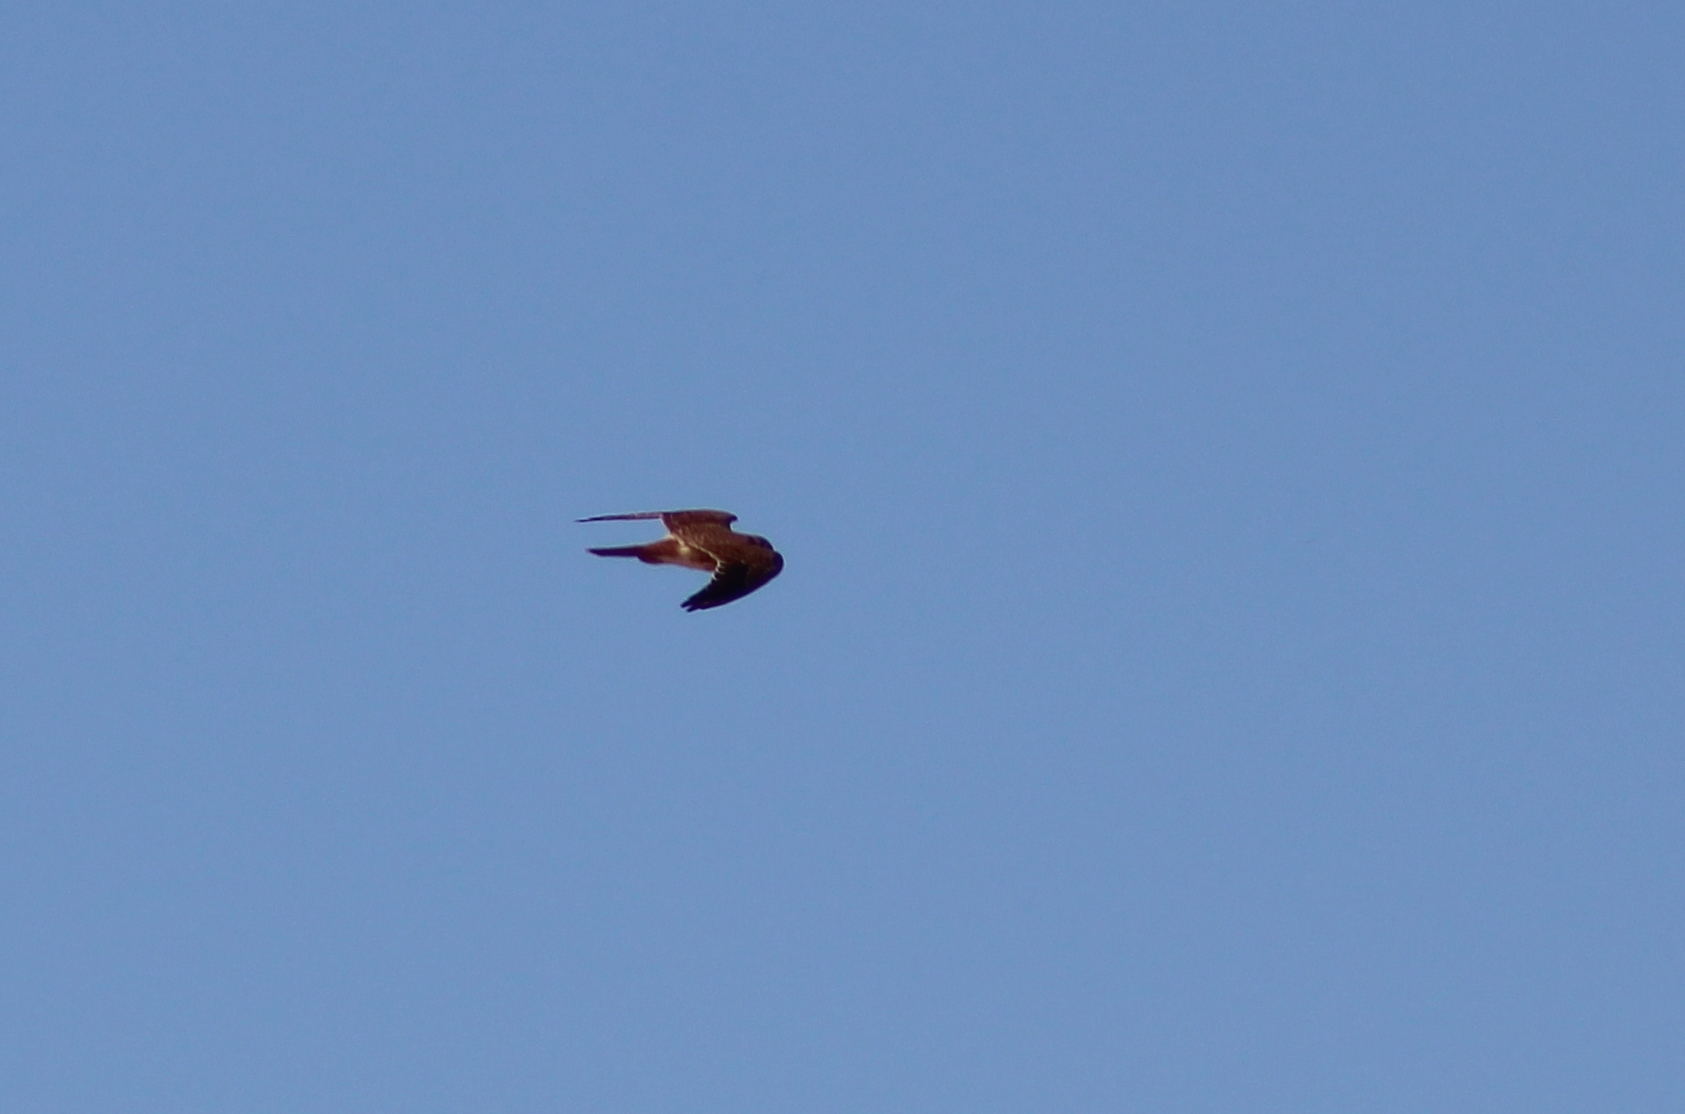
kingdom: Animalia
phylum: Chordata
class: Aves
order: Falconiformes
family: Falconidae
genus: Falco
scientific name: Falco sparverius
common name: American kestrel
